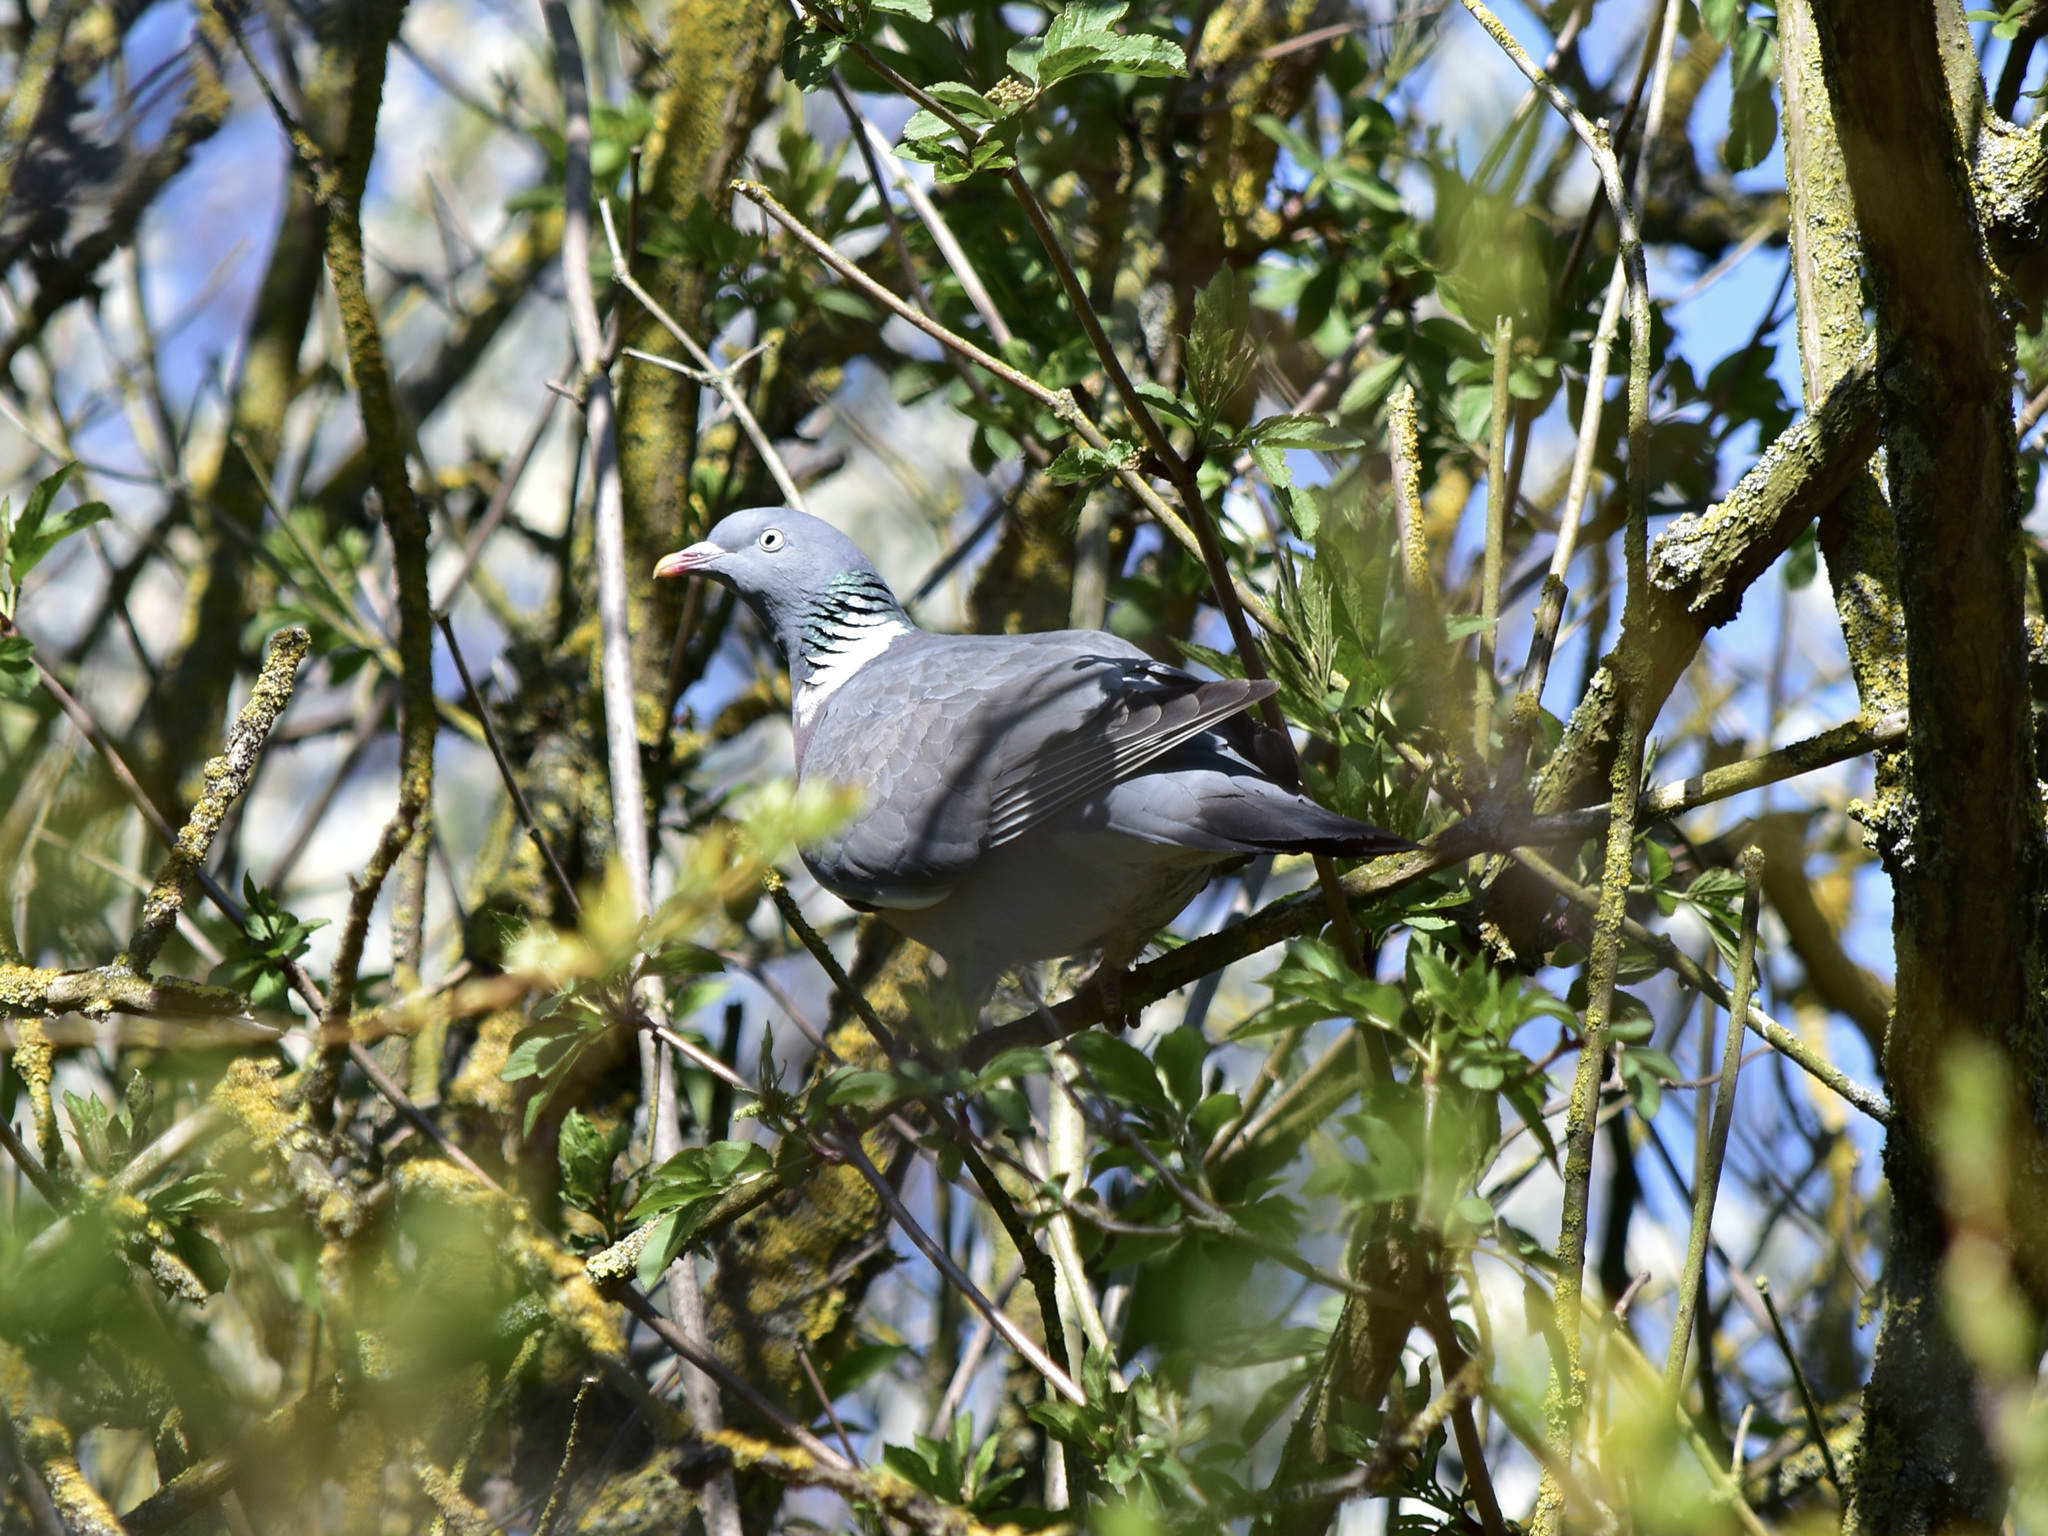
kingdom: Animalia
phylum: Chordata
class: Aves
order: Columbiformes
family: Columbidae
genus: Columba
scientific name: Columba palumbus
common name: Common wood pigeon
